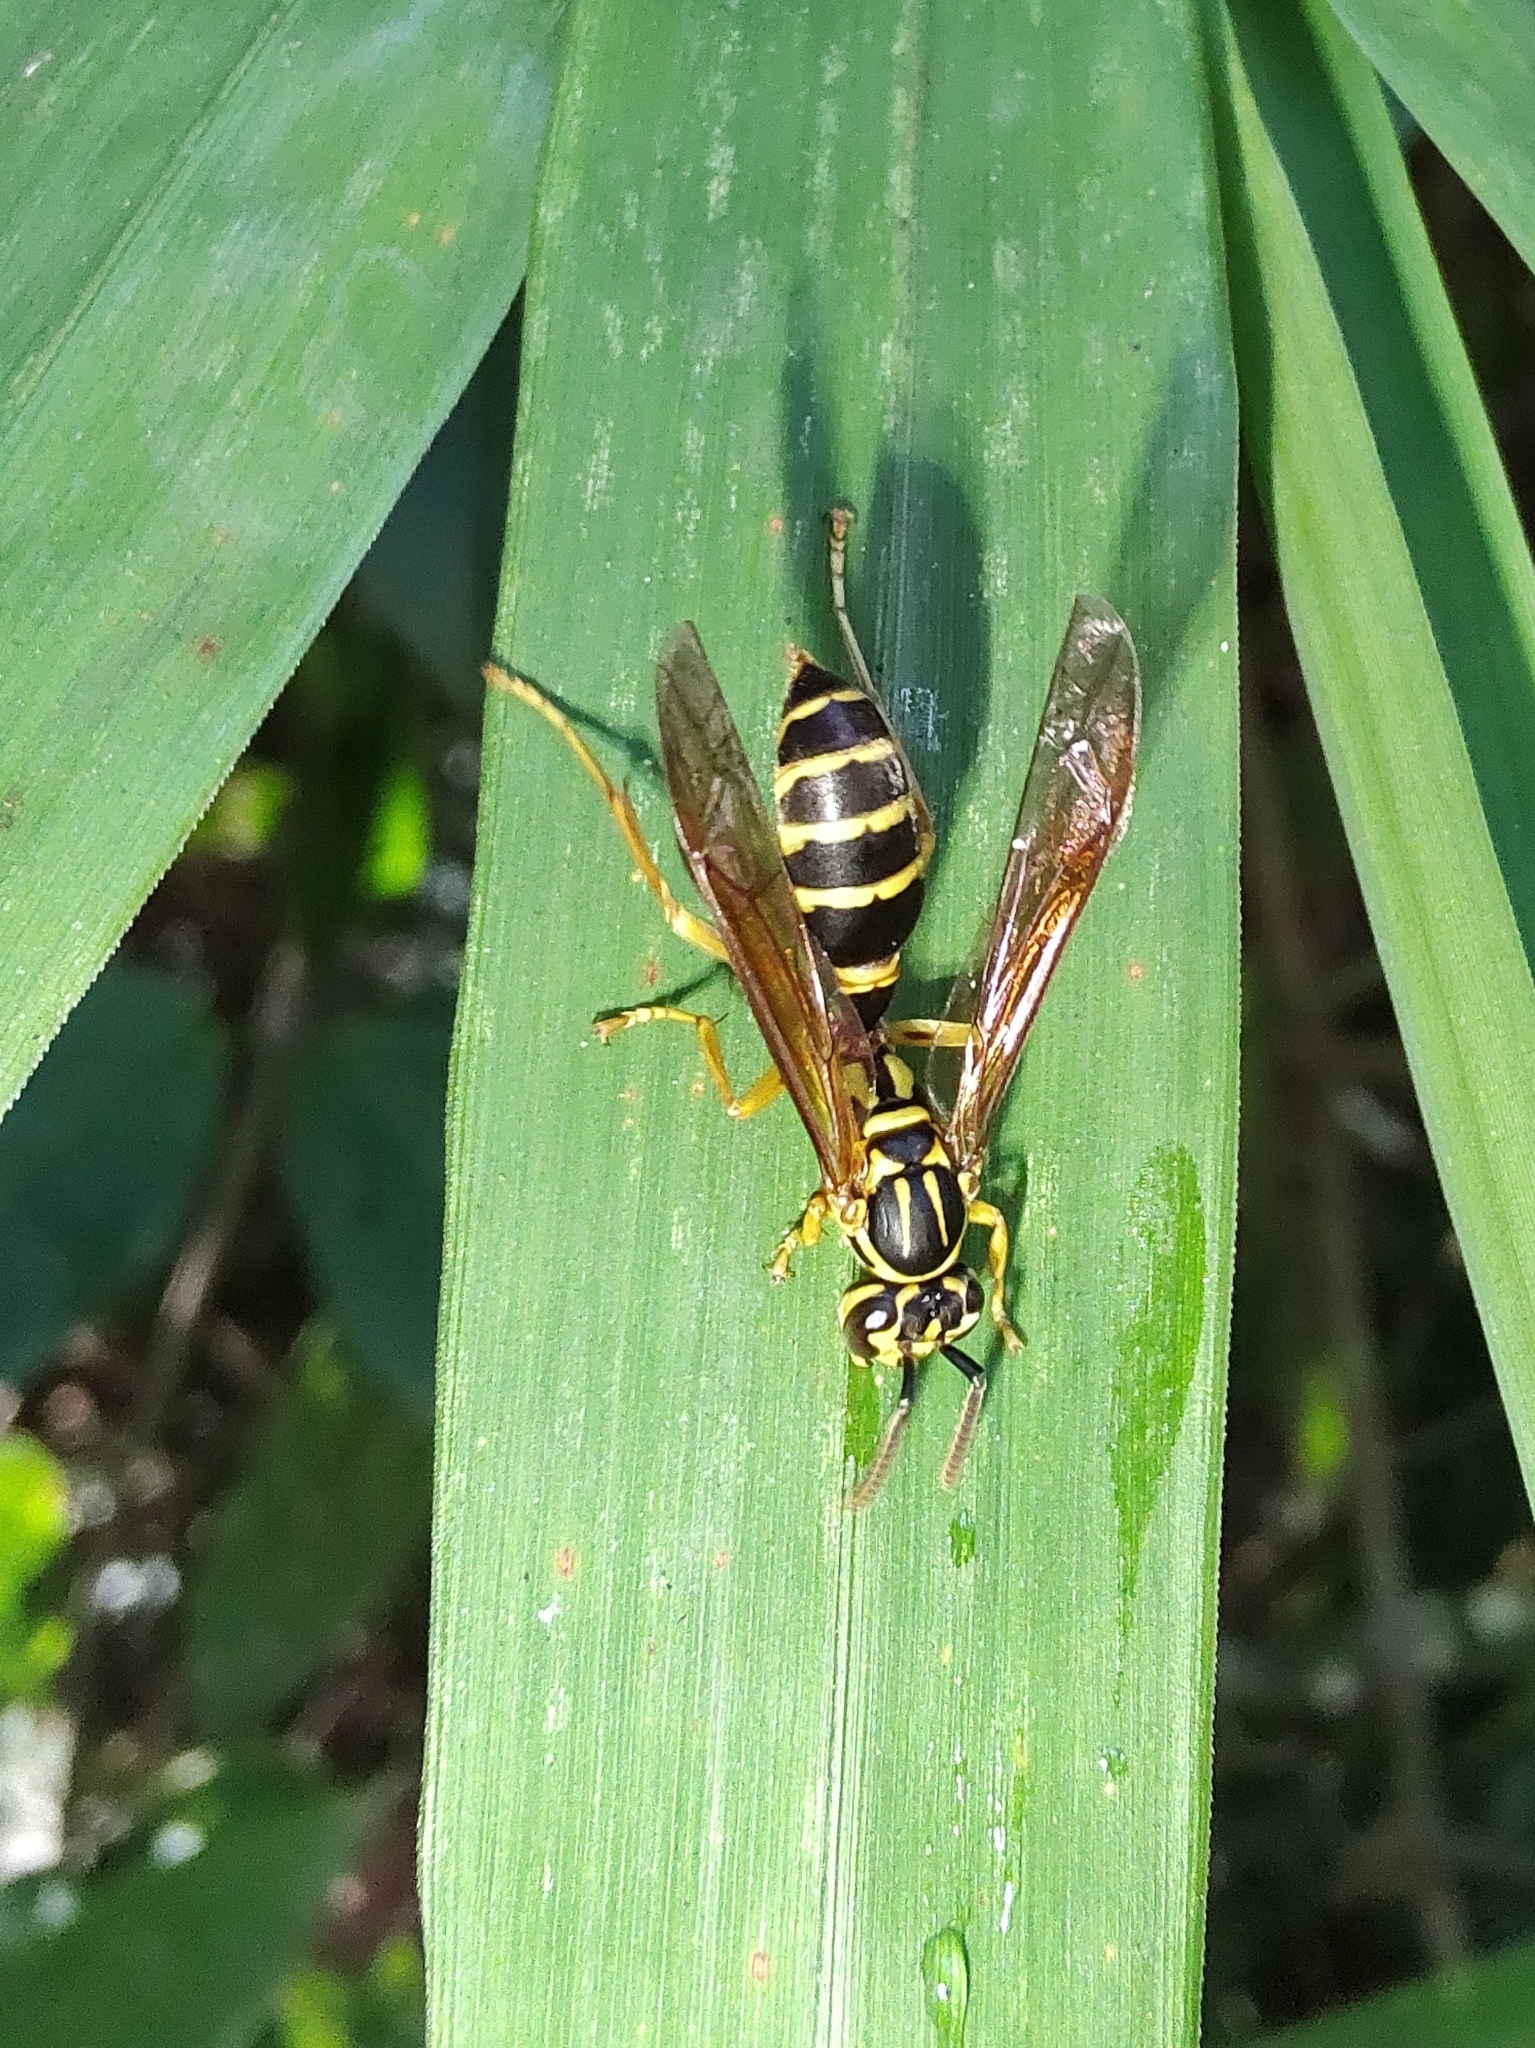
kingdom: Animalia
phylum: Arthropoda
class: Insecta
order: Hymenoptera
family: Vespidae
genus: Agelaia
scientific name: Agelaia multipicta
